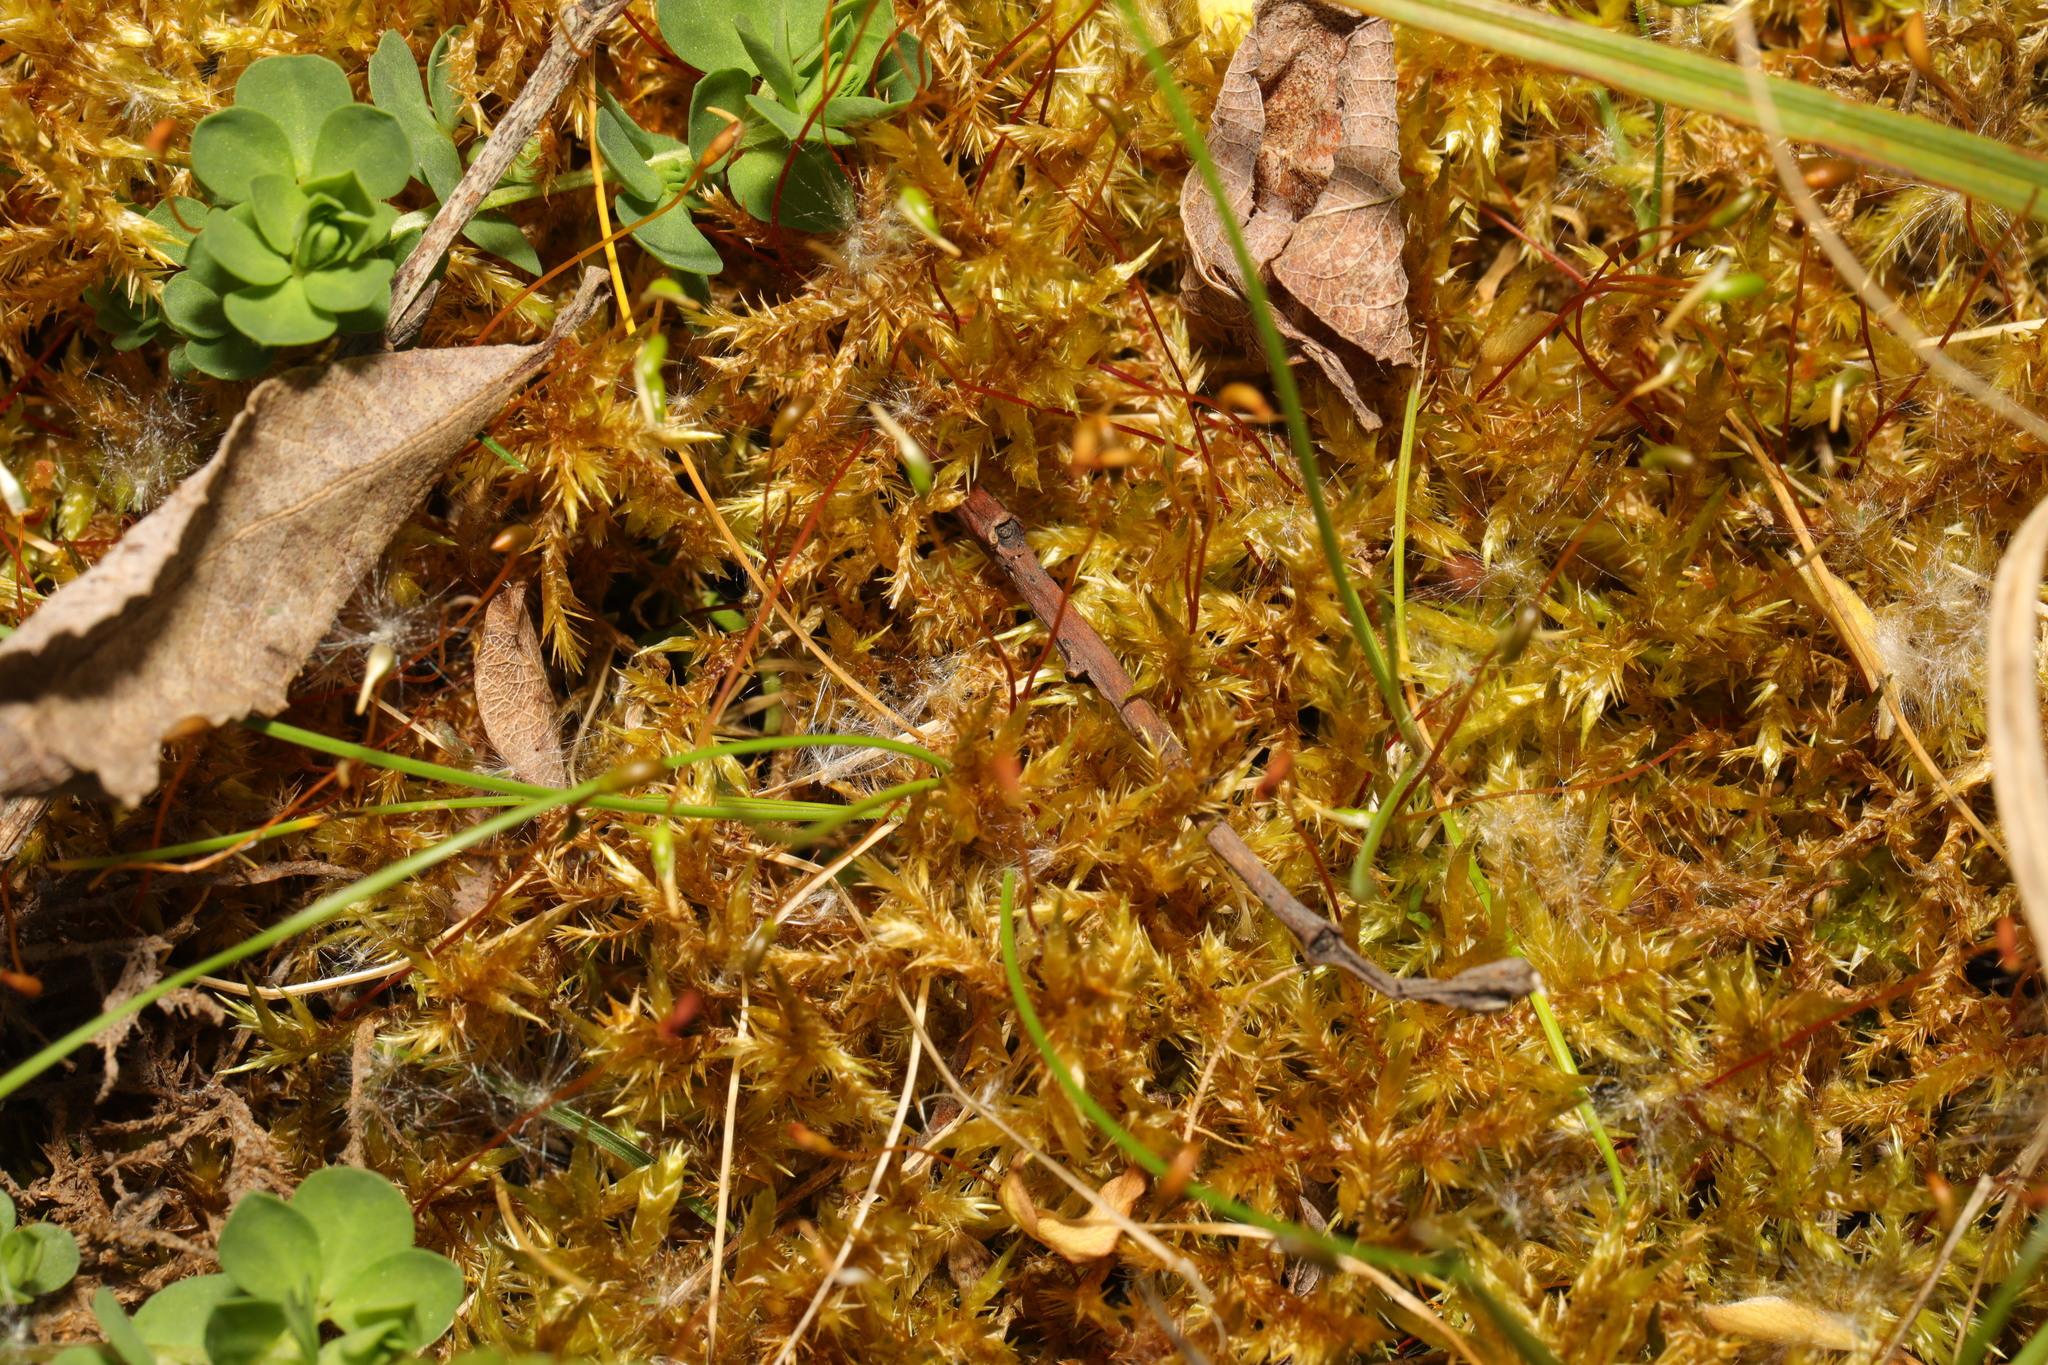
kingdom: Plantae
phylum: Bryophyta
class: Bryopsida
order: Hypnales
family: Pylaisiaceae
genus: Calliergonella
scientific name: Calliergonella cuspidata
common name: Common large wetland moss
